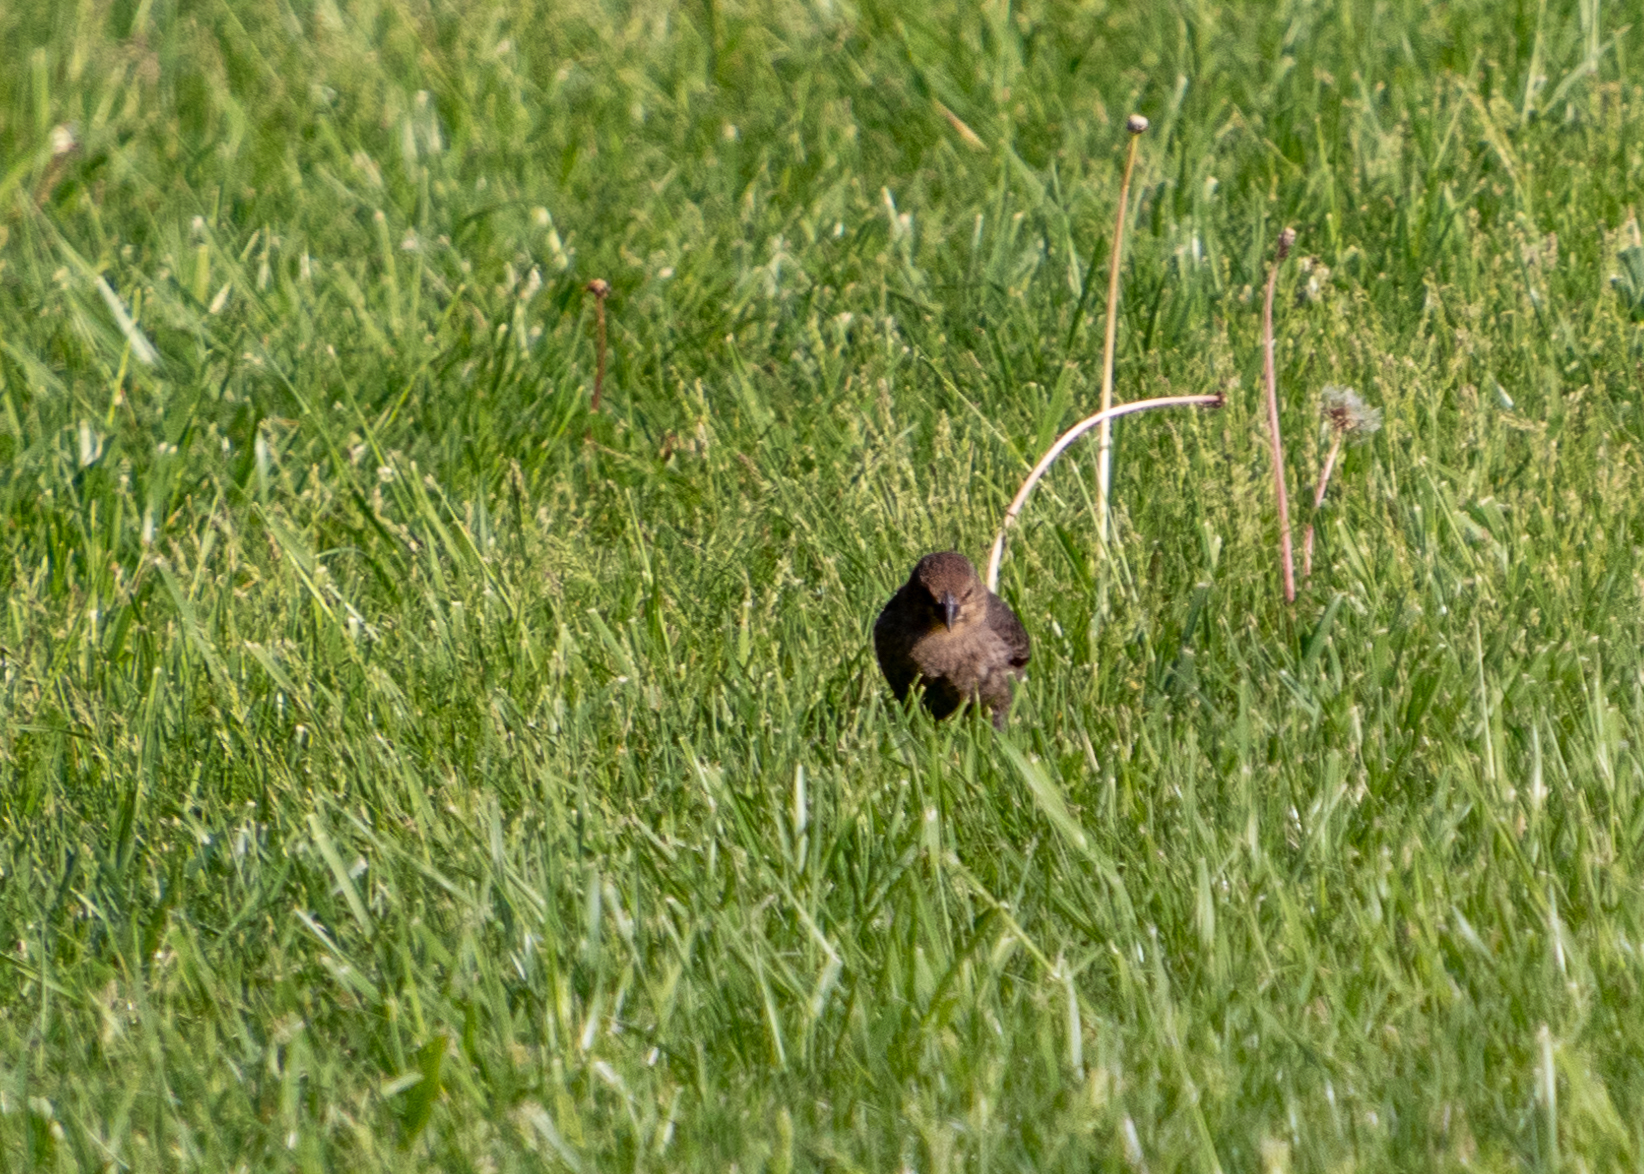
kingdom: Animalia
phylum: Chordata
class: Aves
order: Passeriformes
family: Icteridae
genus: Molothrus
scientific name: Molothrus ater
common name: Brown-headed cowbird
